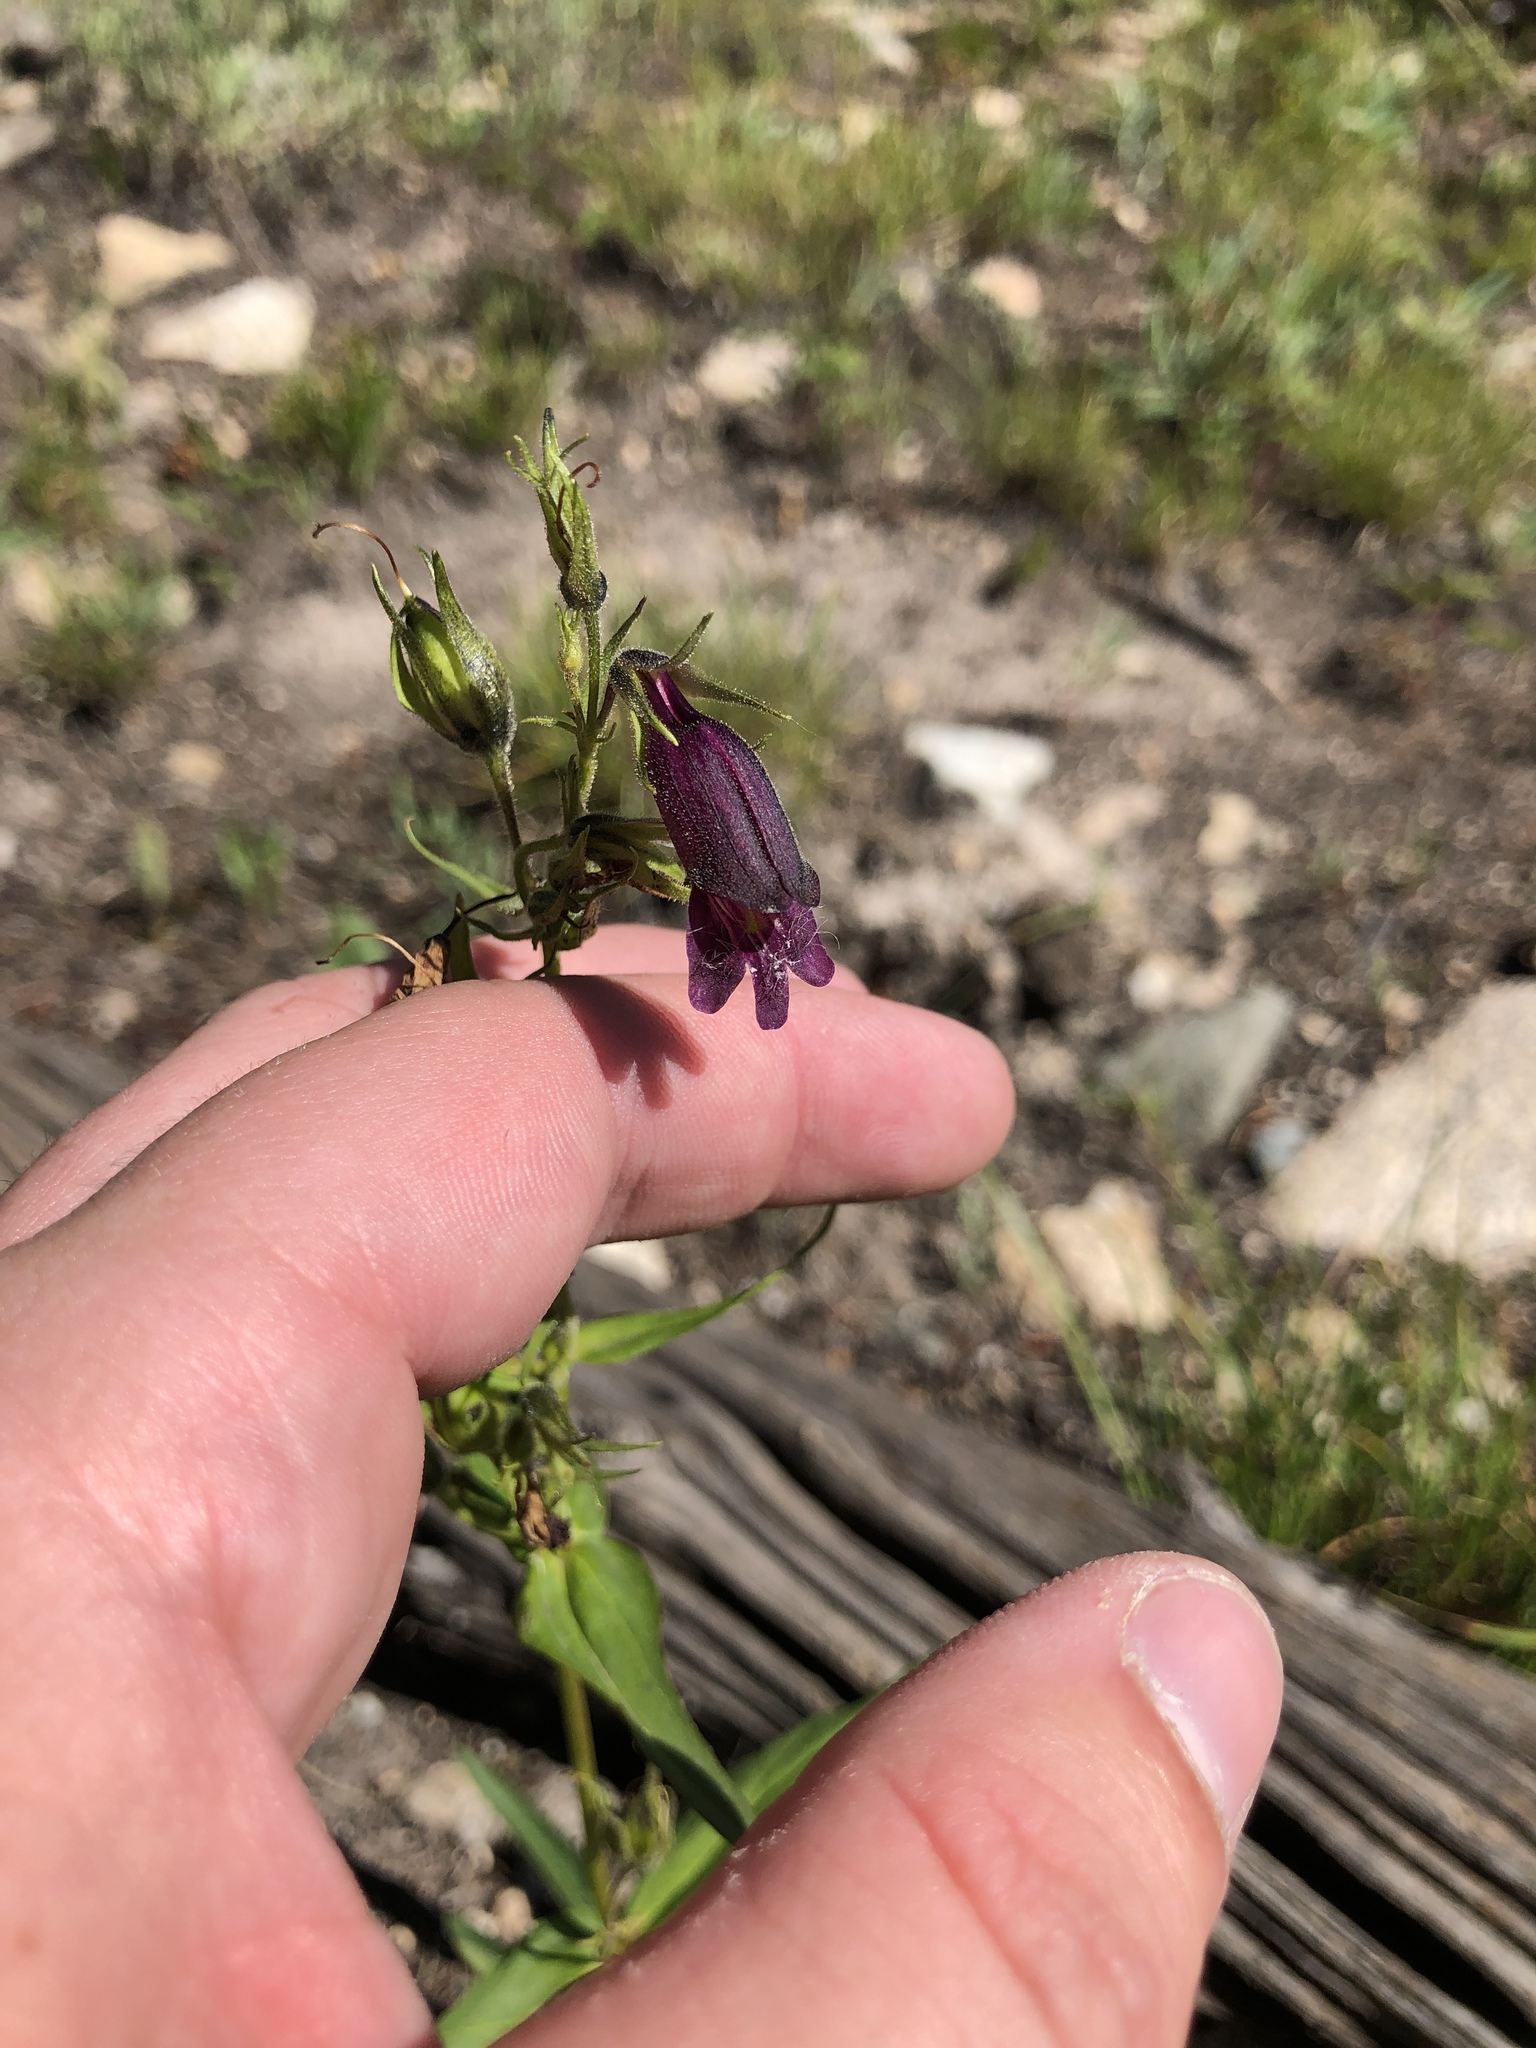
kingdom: Plantae
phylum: Tracheophyta
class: Magnoliopsida
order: Lamiales
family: Plantaginaceae
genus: Penstemon
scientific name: Penstemon whippleanus
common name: Whipple's penstemon
